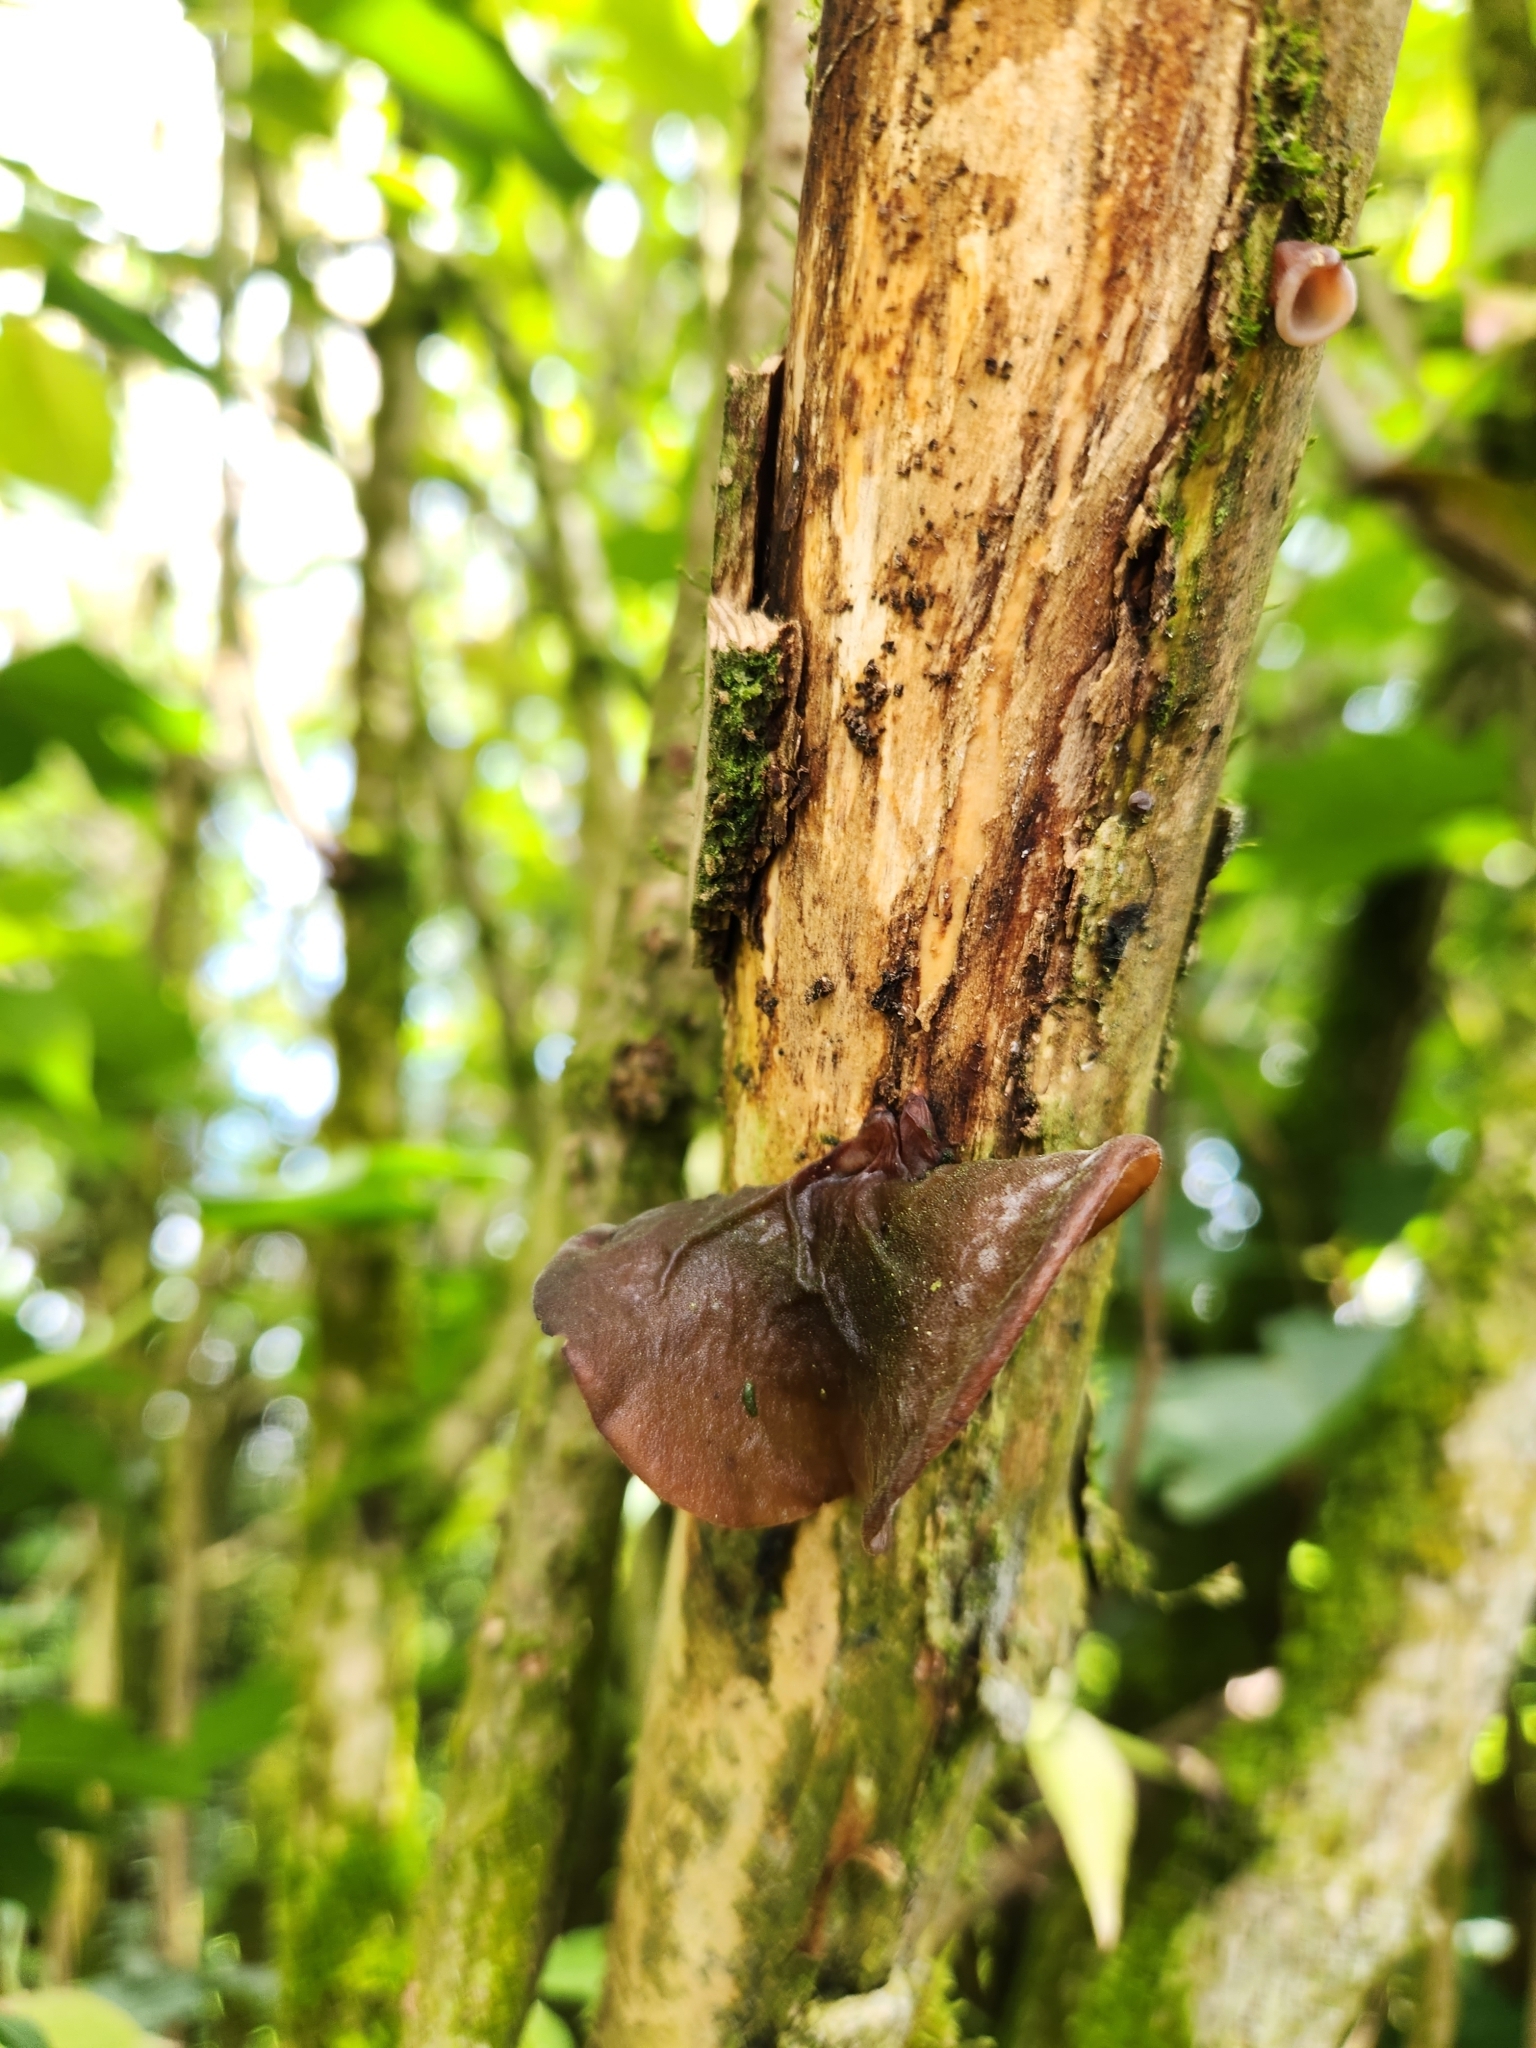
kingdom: Fungi
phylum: Basidiomycota
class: Agaricomycetes
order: Auriculariales
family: Auriculariaceae
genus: Auricularia
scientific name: Auricularia auricula-judae
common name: Jelly ear
